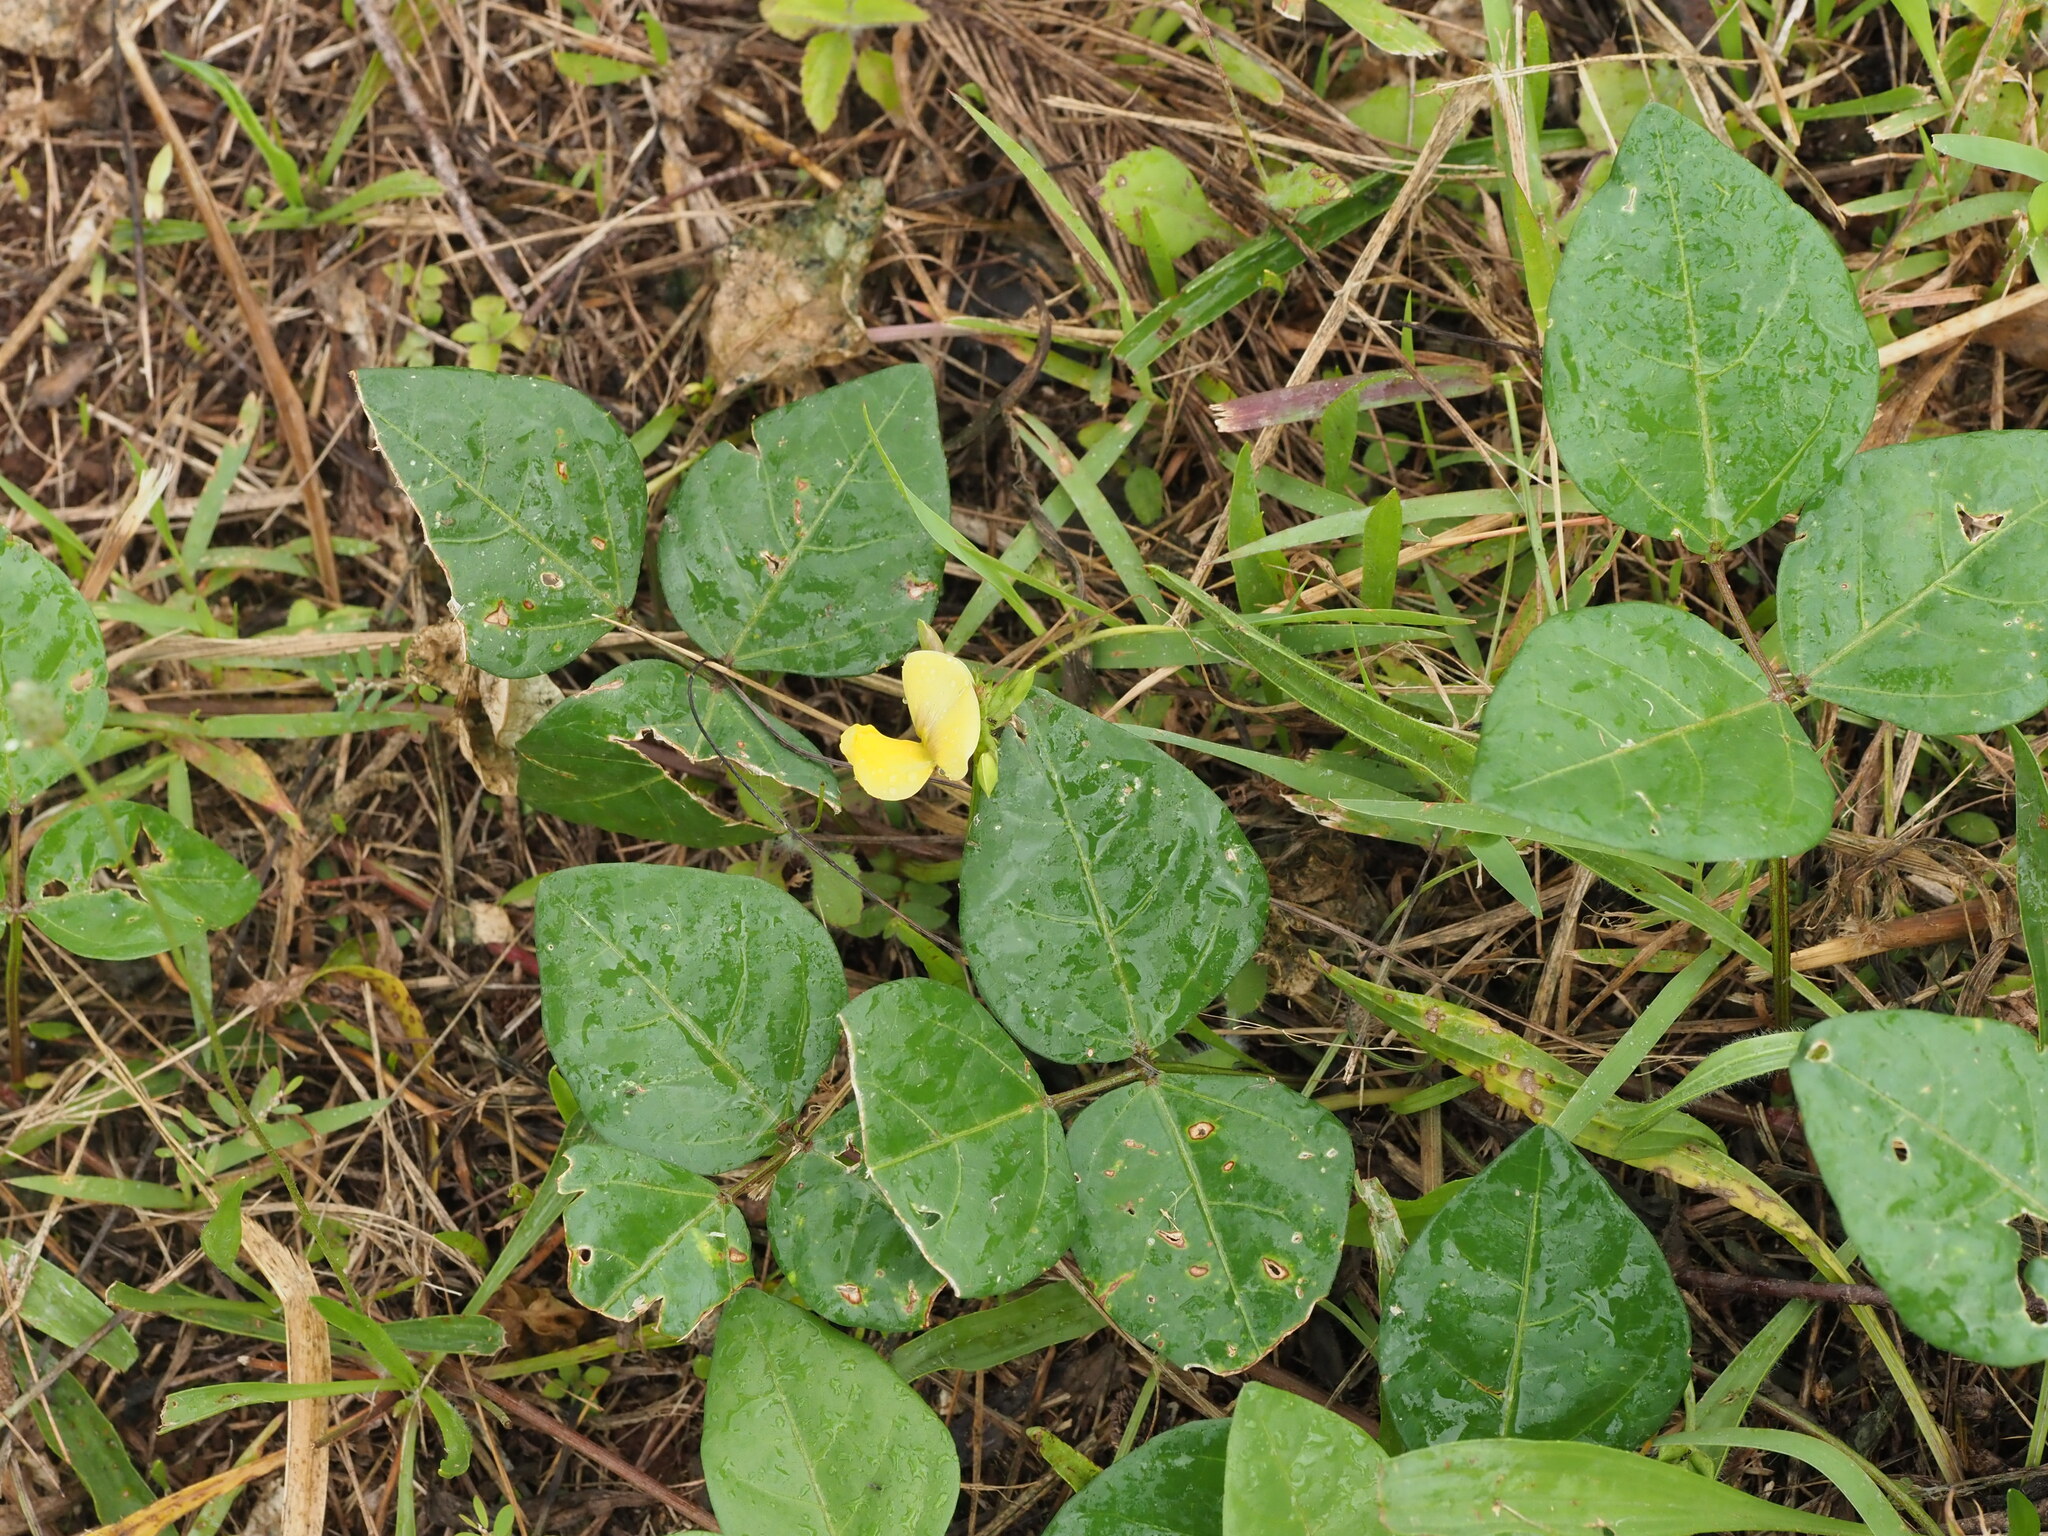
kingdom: Plantae
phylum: Tracheophyta
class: Magnoliopsida
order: Fabales
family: Fabaceae
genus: Vigna
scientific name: Vigna marina
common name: Dune-bean
